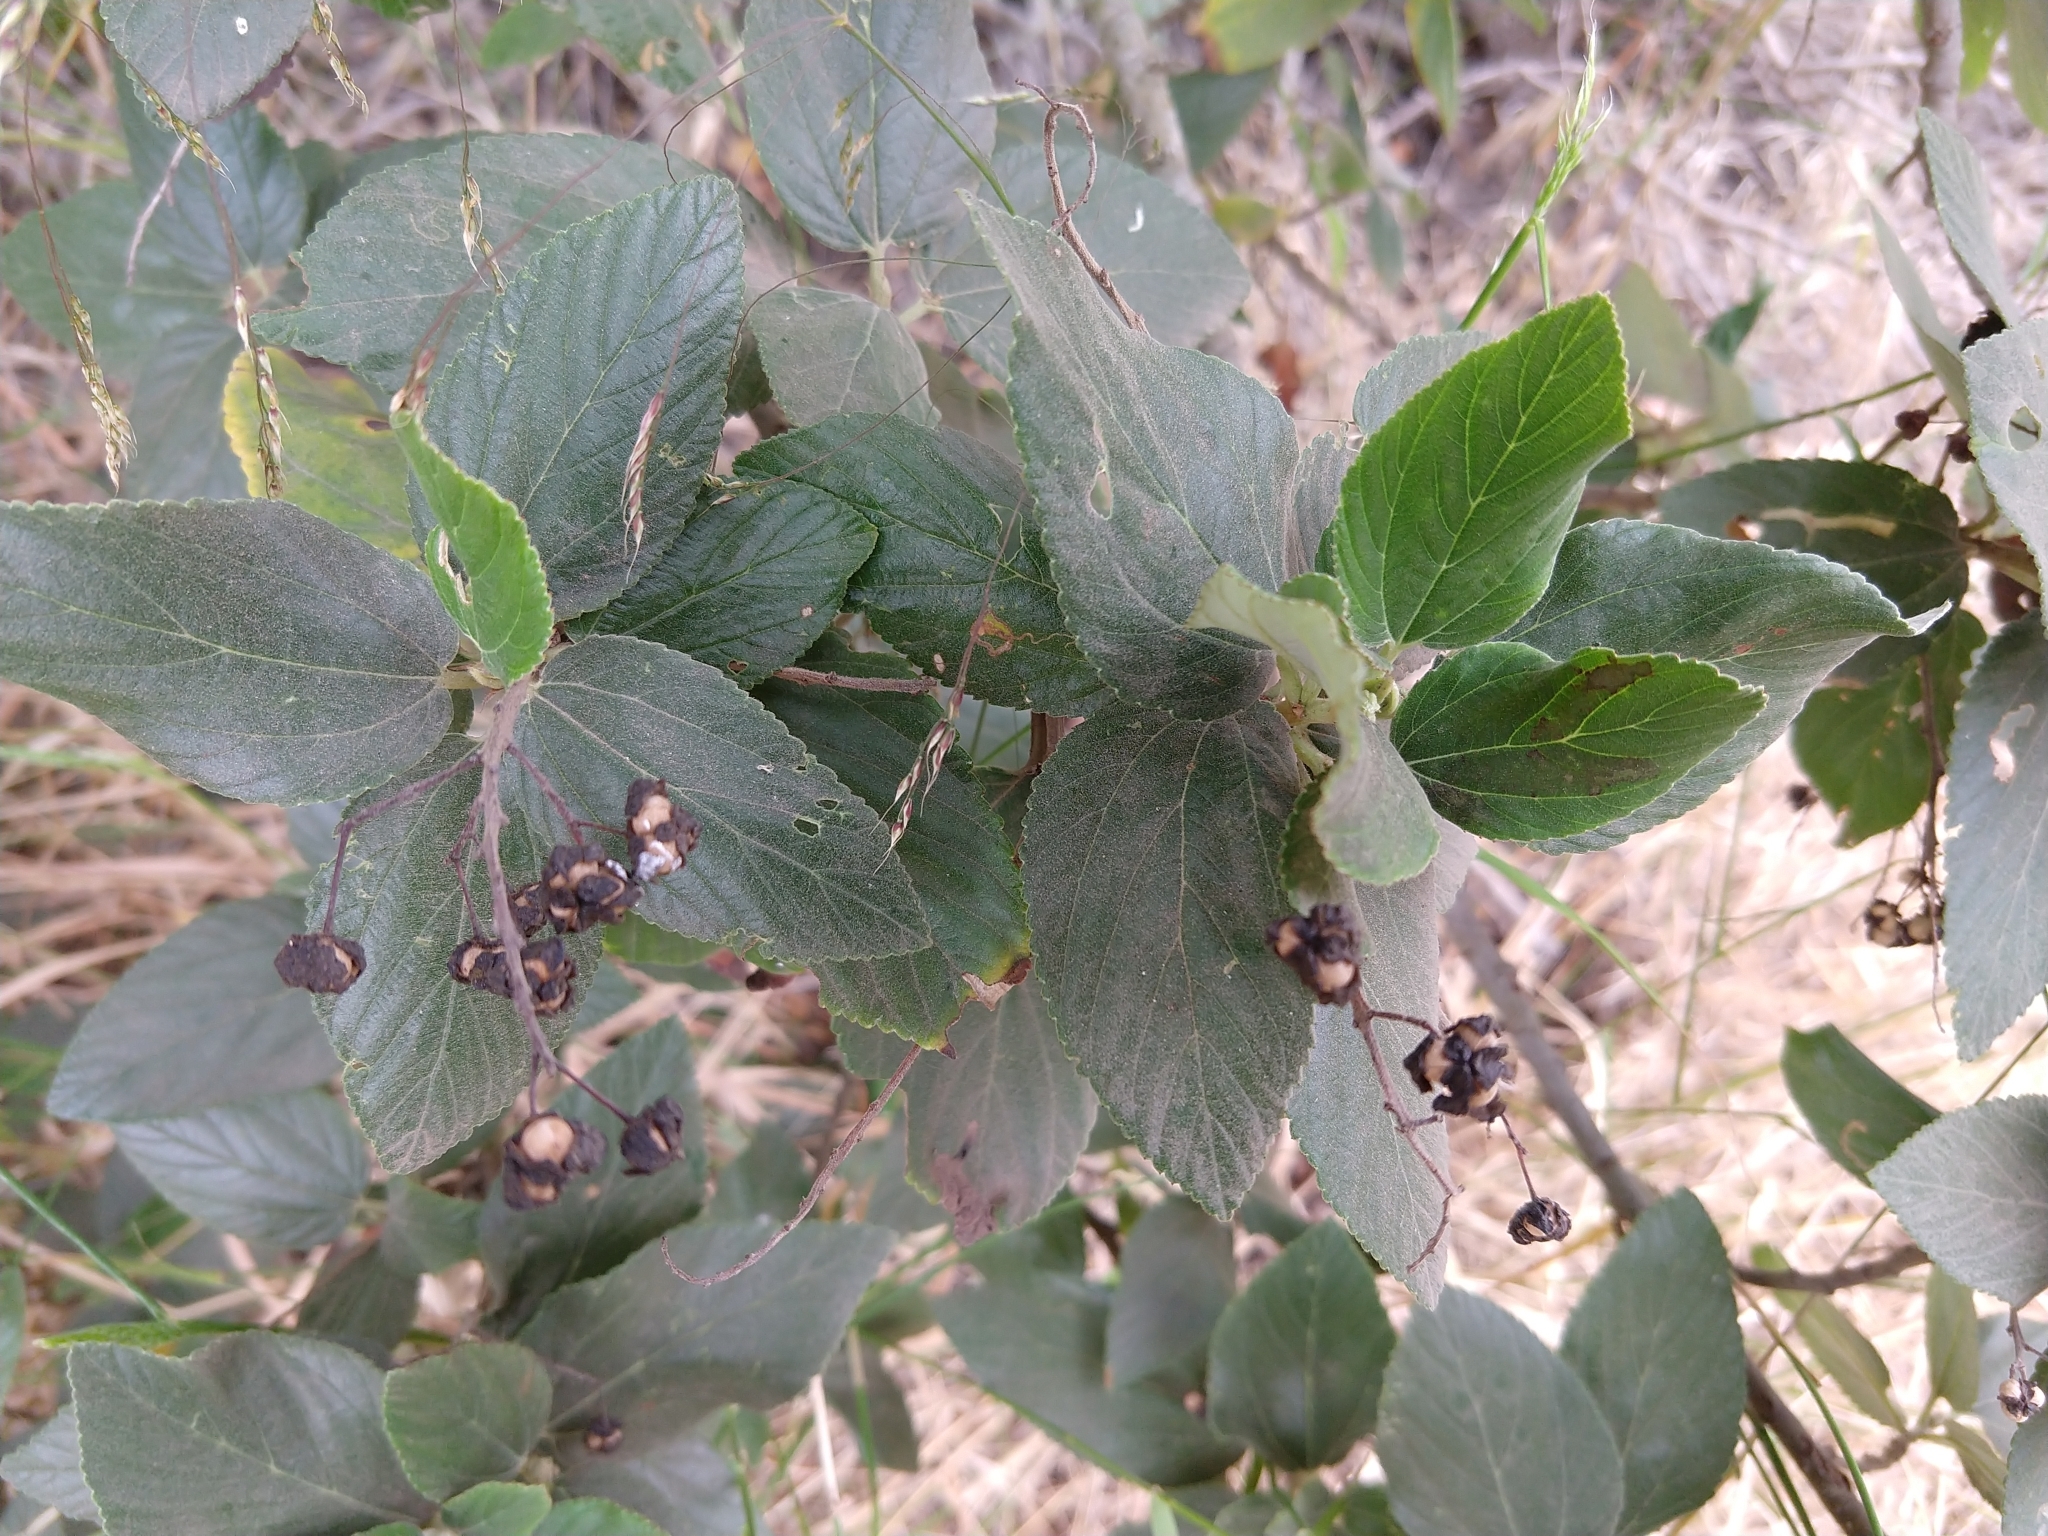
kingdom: Plantae
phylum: Tracheophyta
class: Magnoliopsida
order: Rosales
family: Rhamnaceae
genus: Ceanothus
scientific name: Ceanothus arboreus
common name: Catalina mountain-lilac
